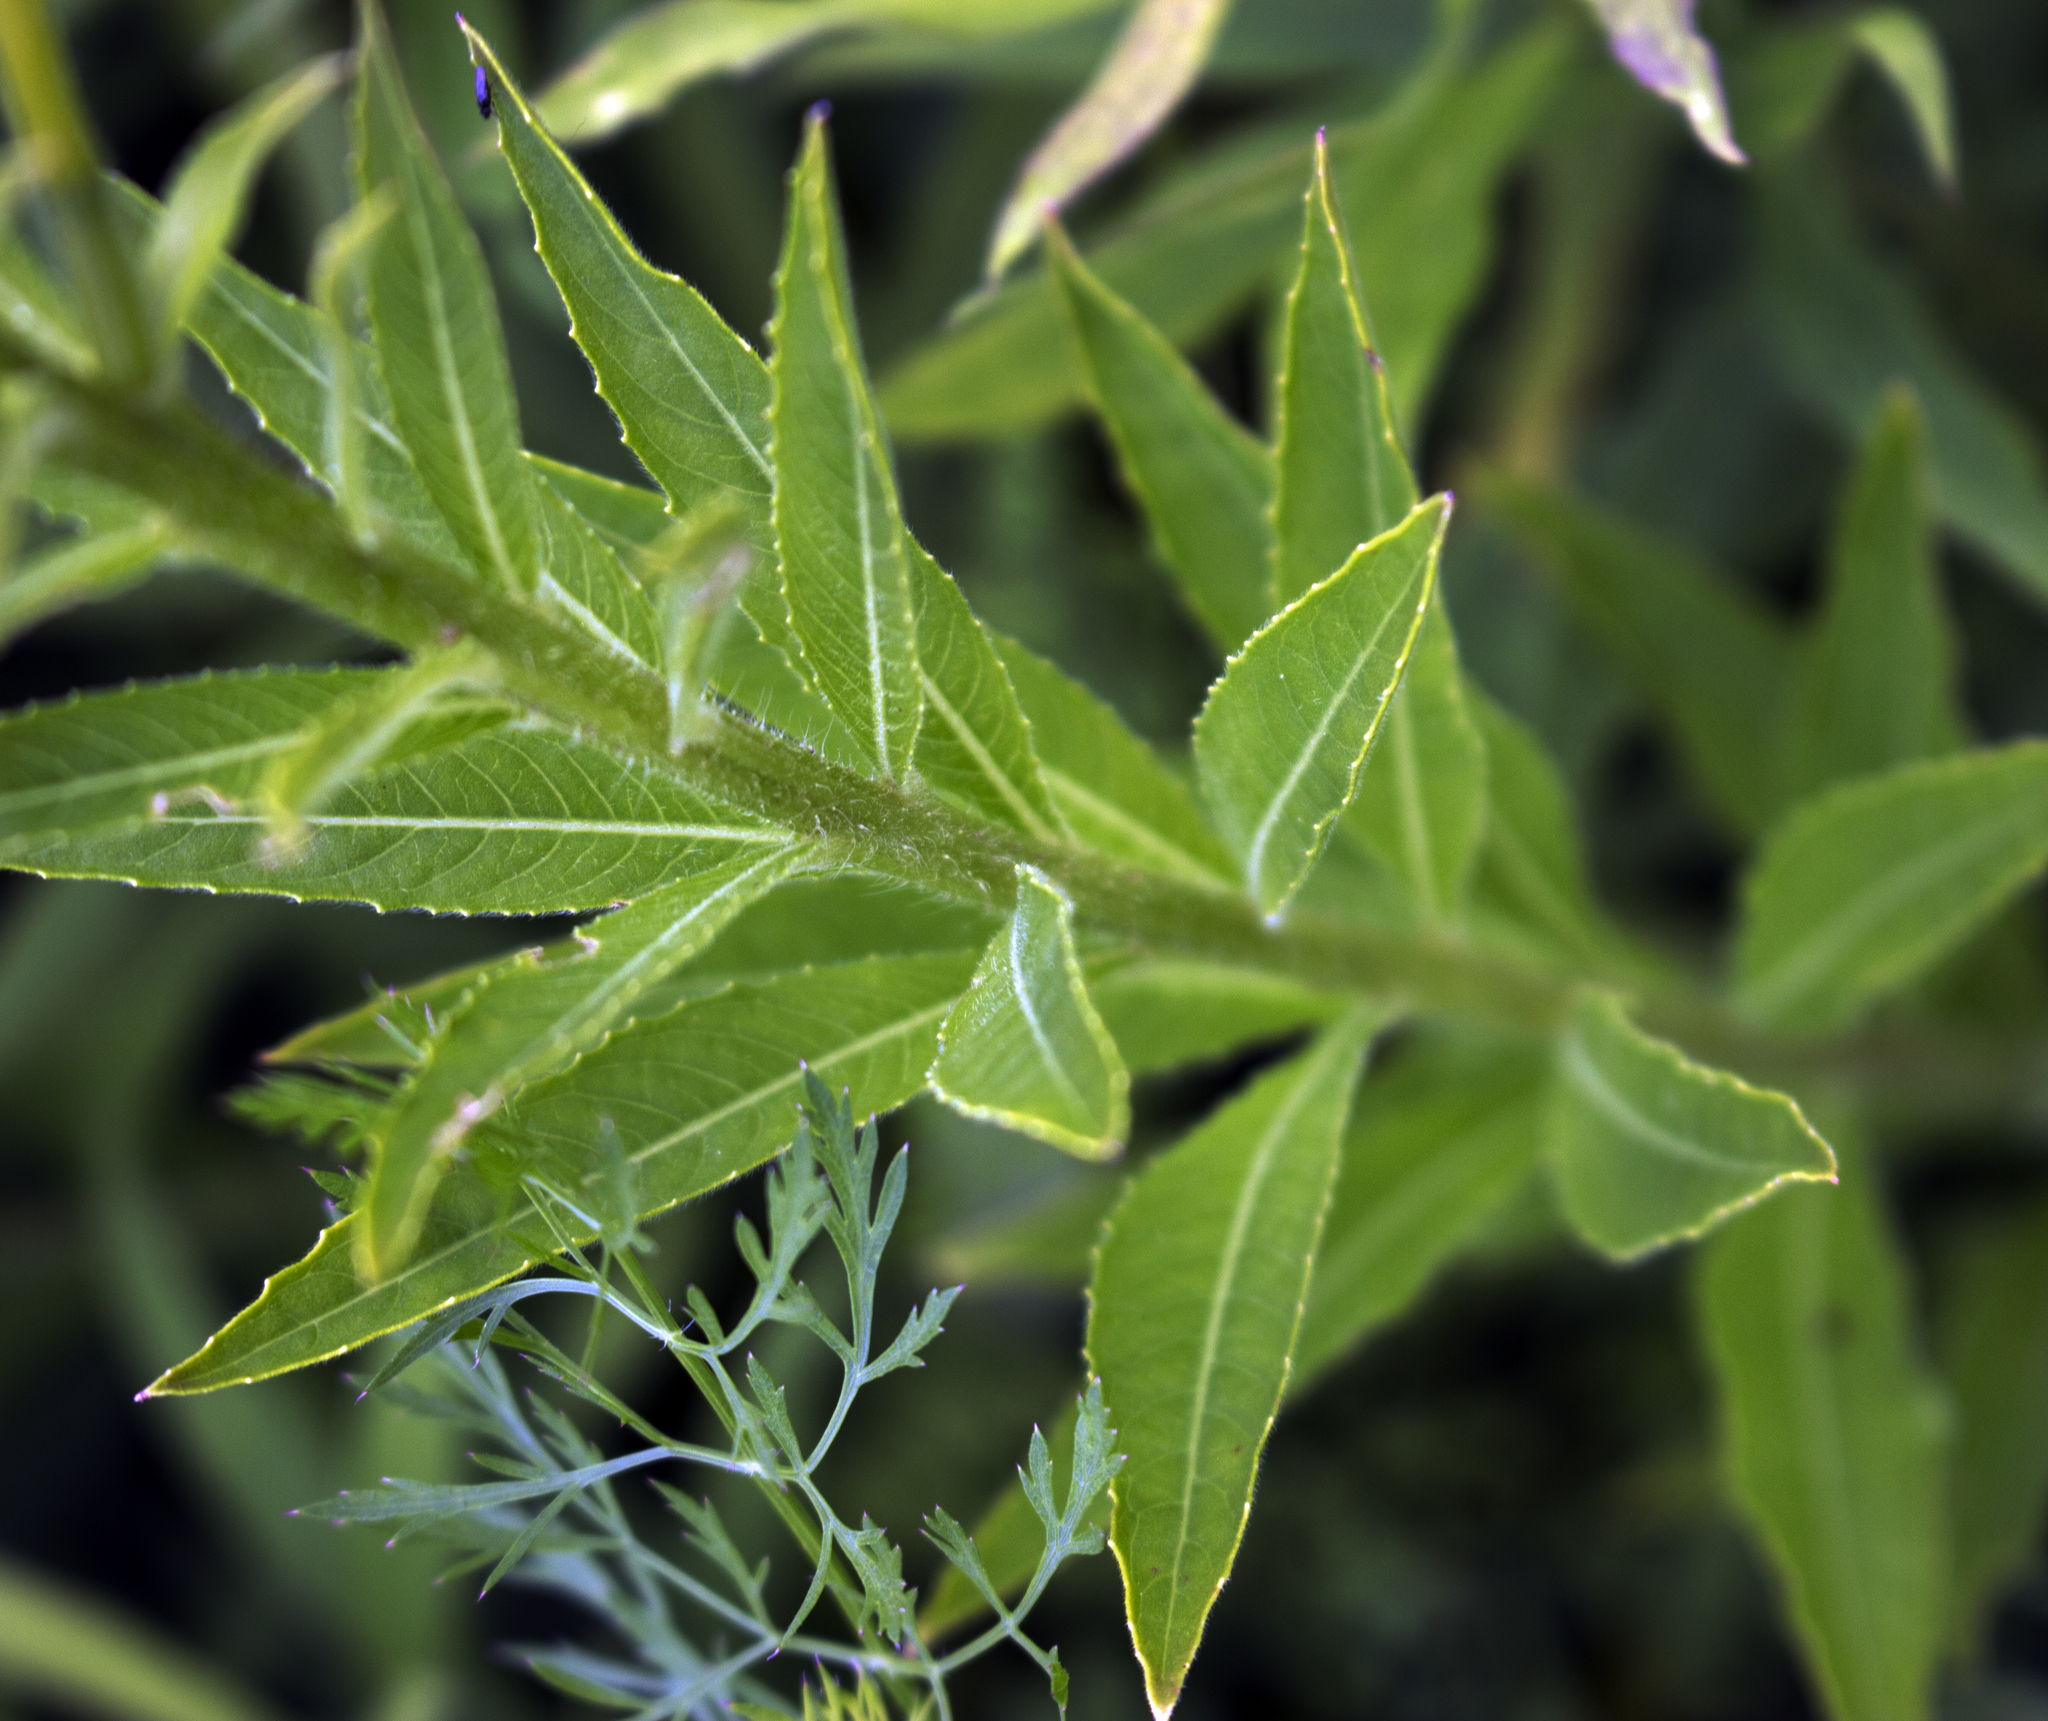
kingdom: Plantae
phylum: Tracheophyta
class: Magnoliopsida
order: Myrtales
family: Onagraceae
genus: Oenothera
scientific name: Oenothera biennis
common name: Common evening-primrose
